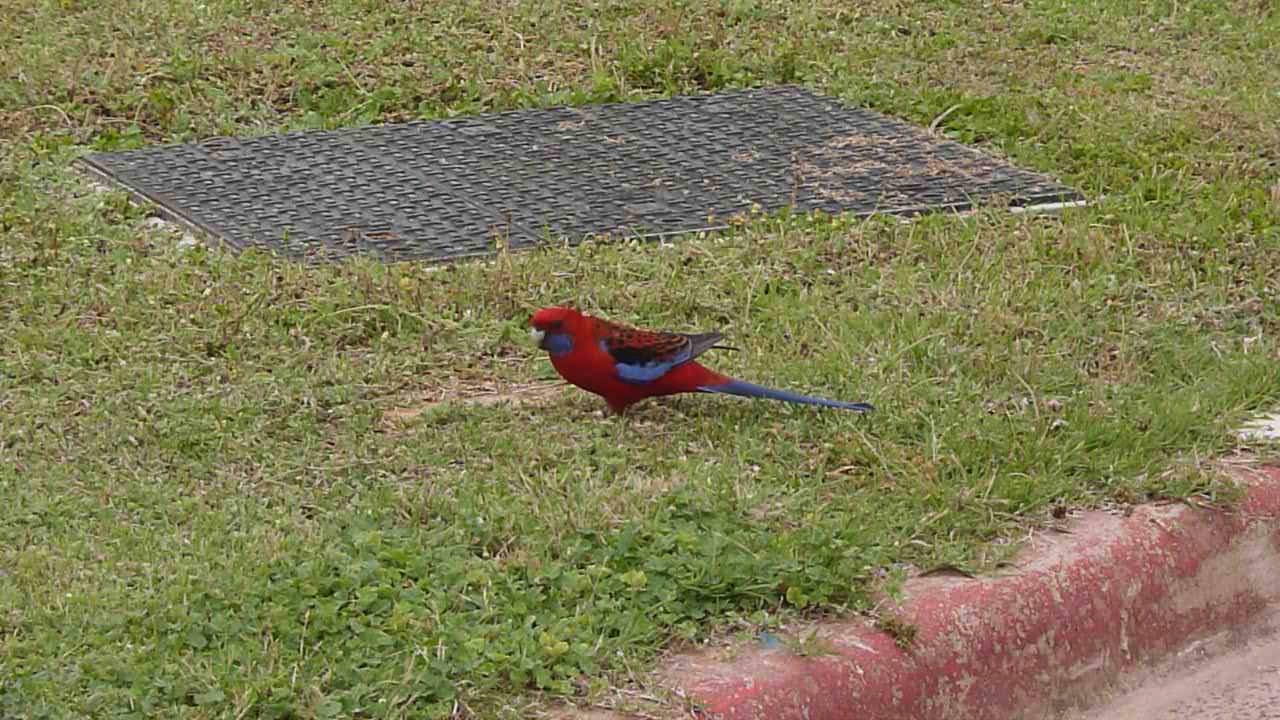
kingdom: Animalia
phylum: Chordata
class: Aves
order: Psittaciformes
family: Psittacidae
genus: Platycercus
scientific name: Platycercus elegans
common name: Crimson rosella
